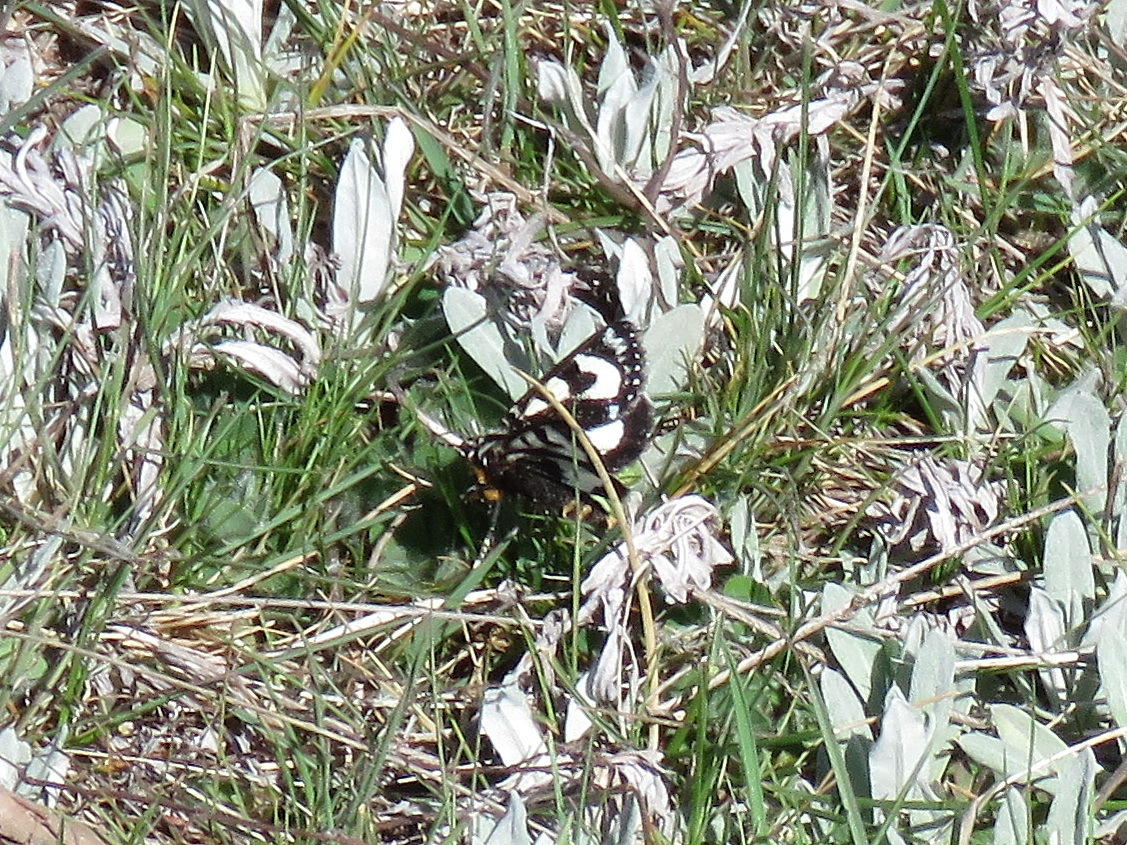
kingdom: Animalia
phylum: Arthropoda
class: Insecta
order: Lepidoptera
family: Noctuidae
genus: Agaristodes
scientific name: Agaristodes feisthamelii
